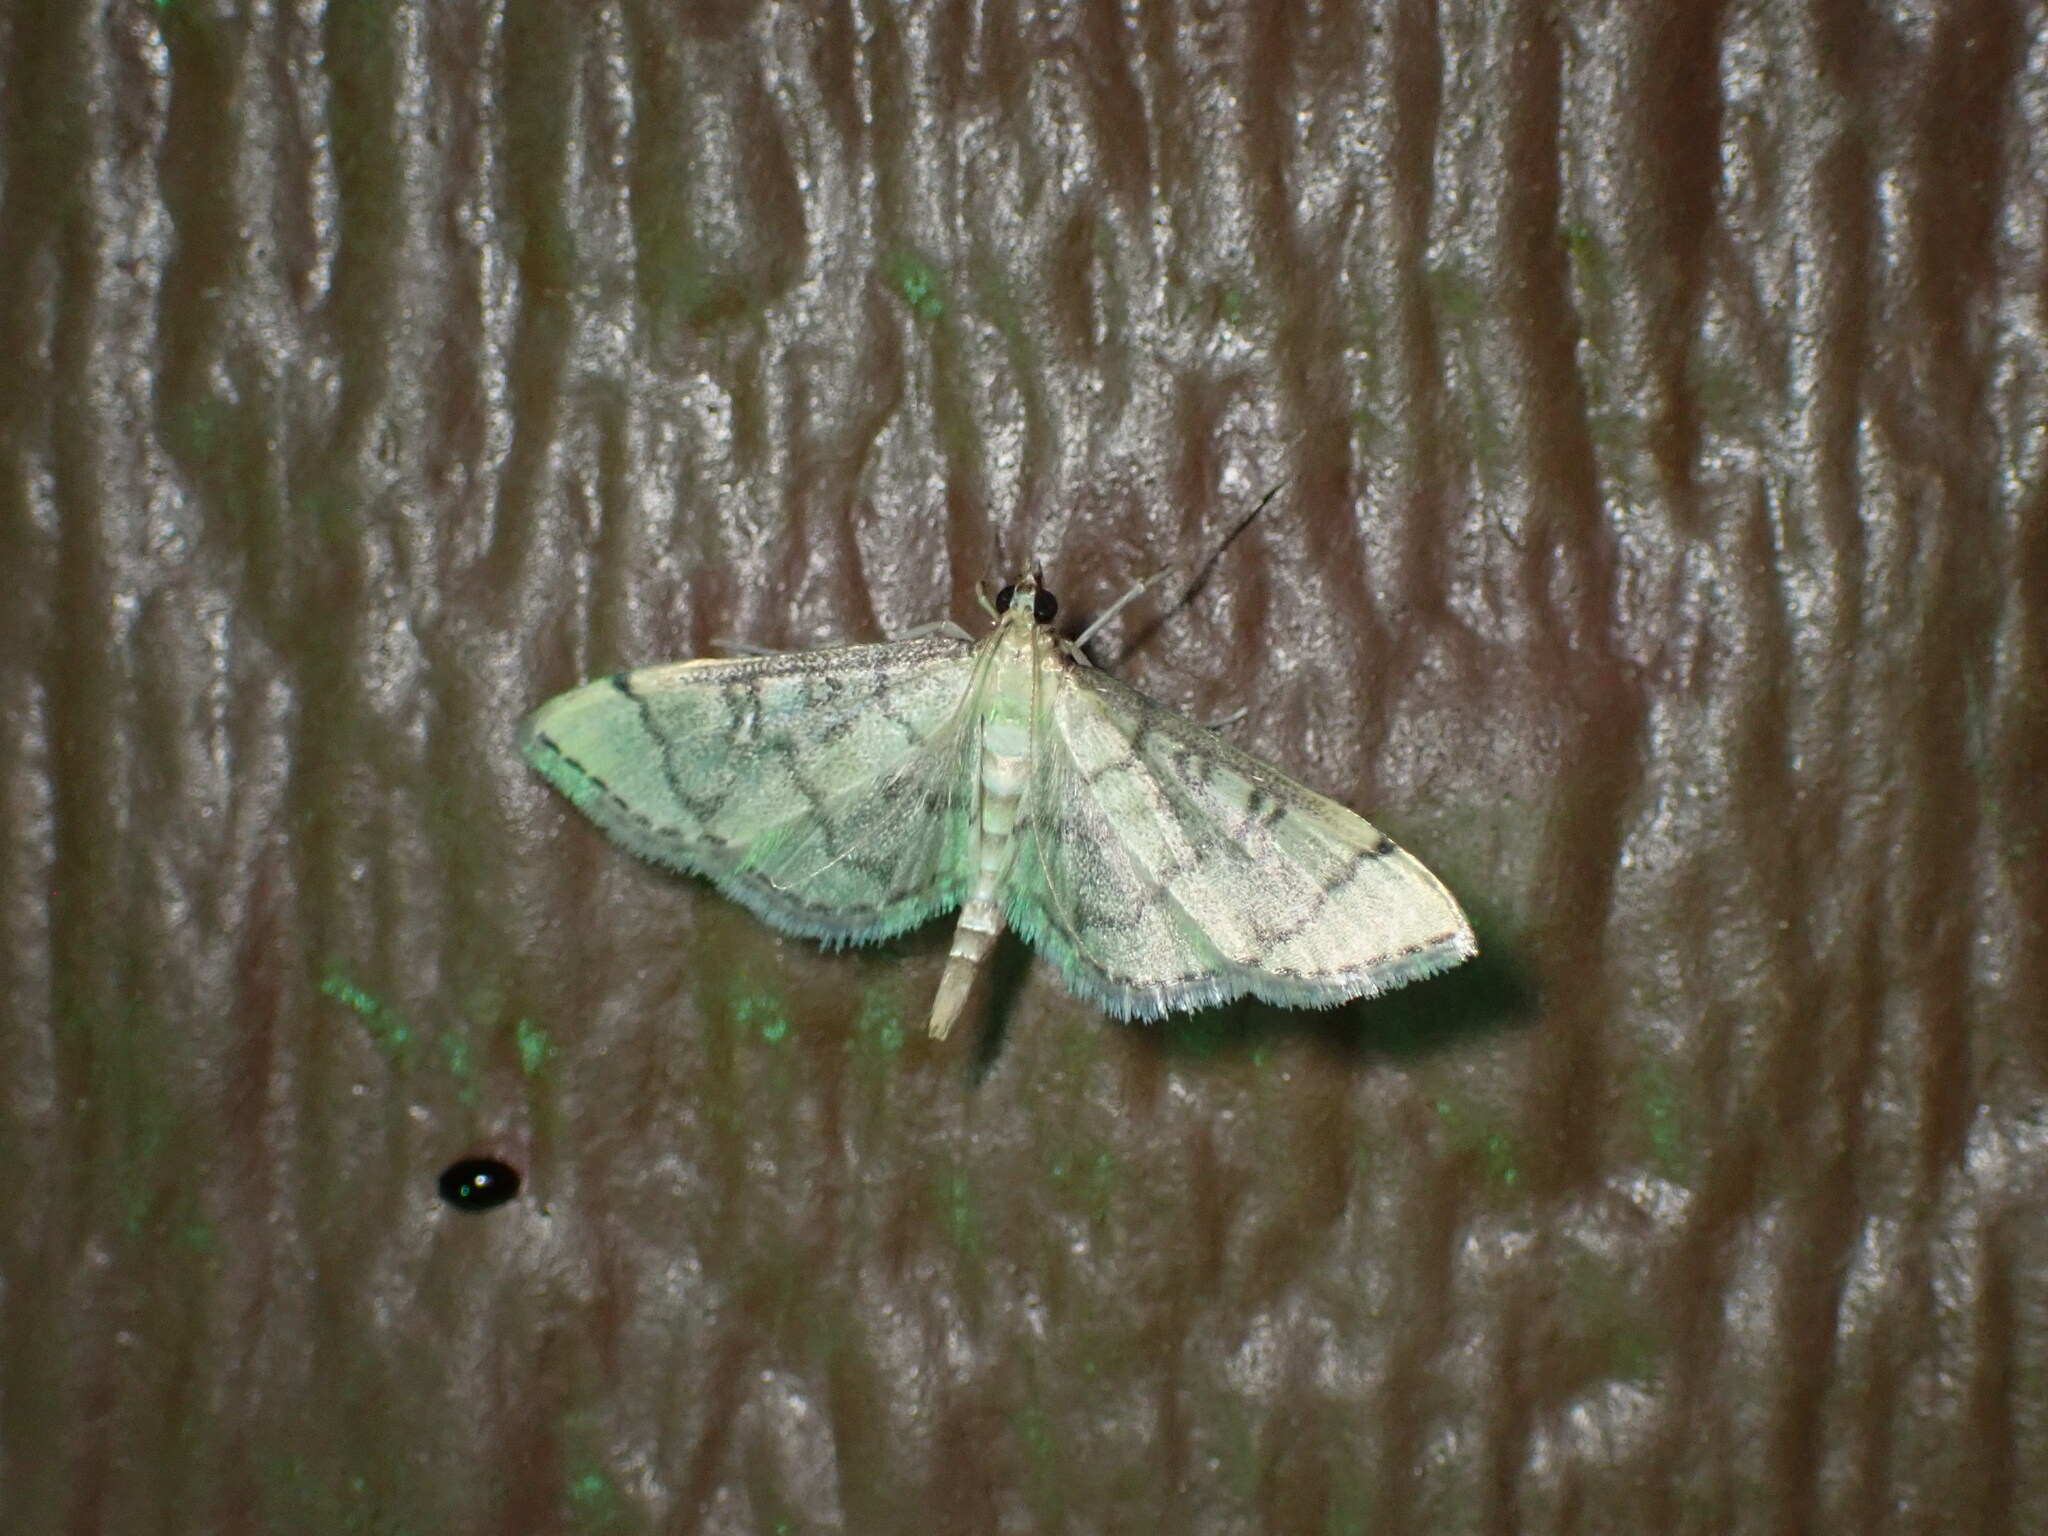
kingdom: Animalia
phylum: Arthropoda
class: Insecta
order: Lepidoptera
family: Crambidae
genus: Lamprosema
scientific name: Lamprosema Blepharomastix ranalis
